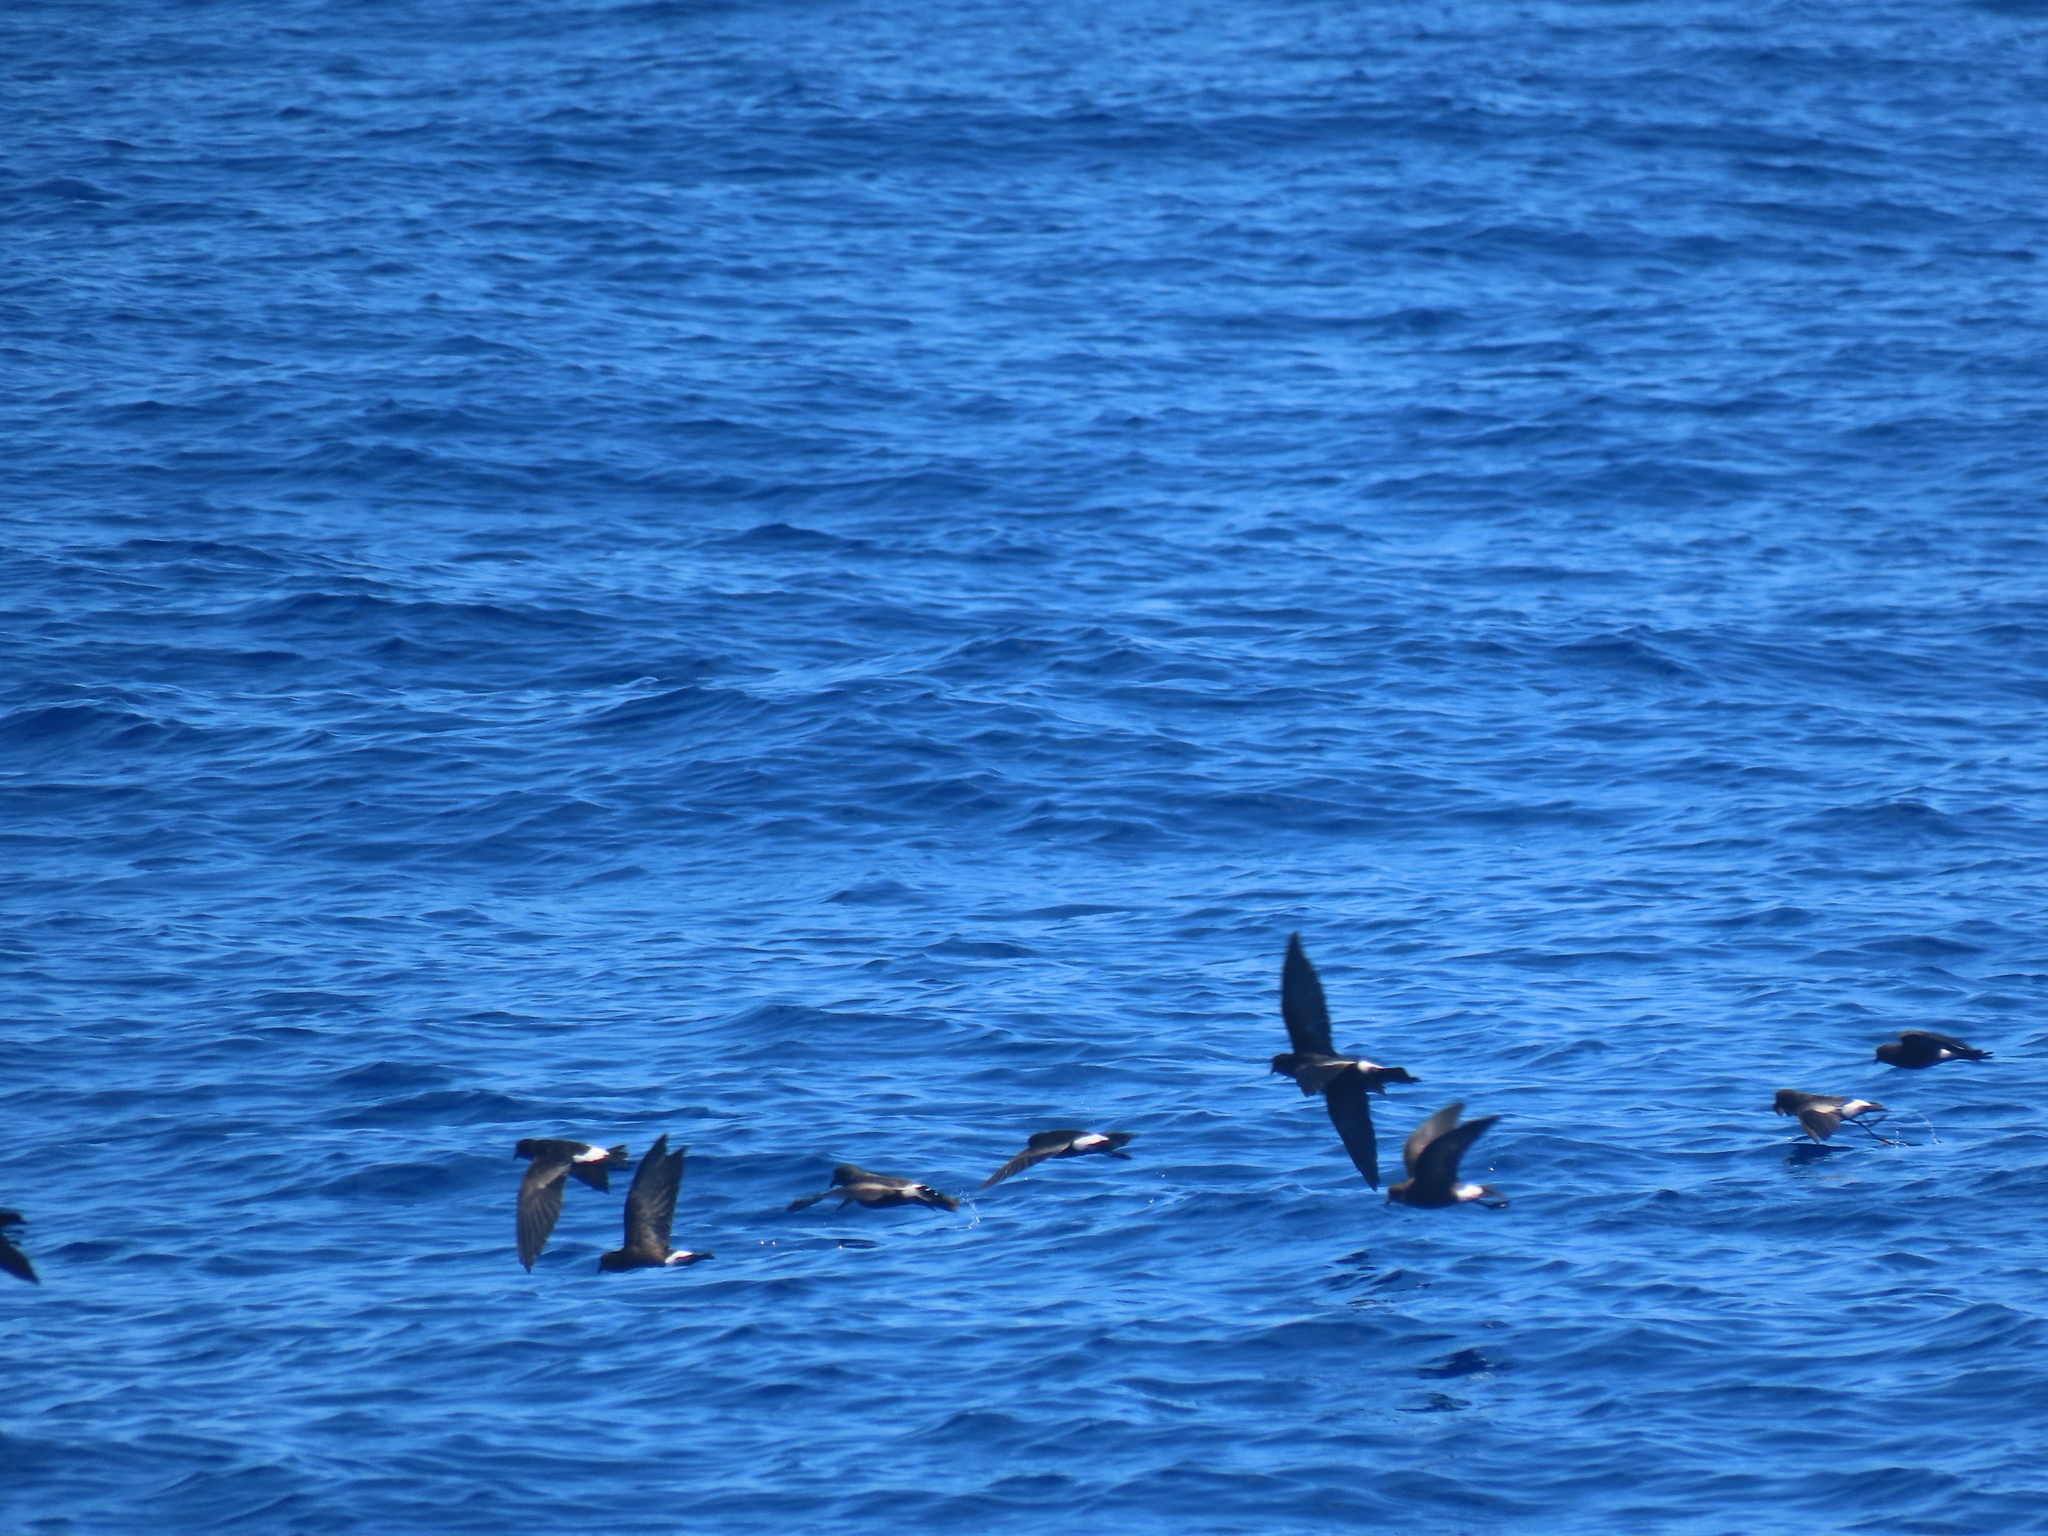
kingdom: Animalia
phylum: Chordata
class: Aves
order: Procellariiformes
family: Hydrobatidae
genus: Oceanites
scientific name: Oceanites oceanicus
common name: Wilson's storm petrel
